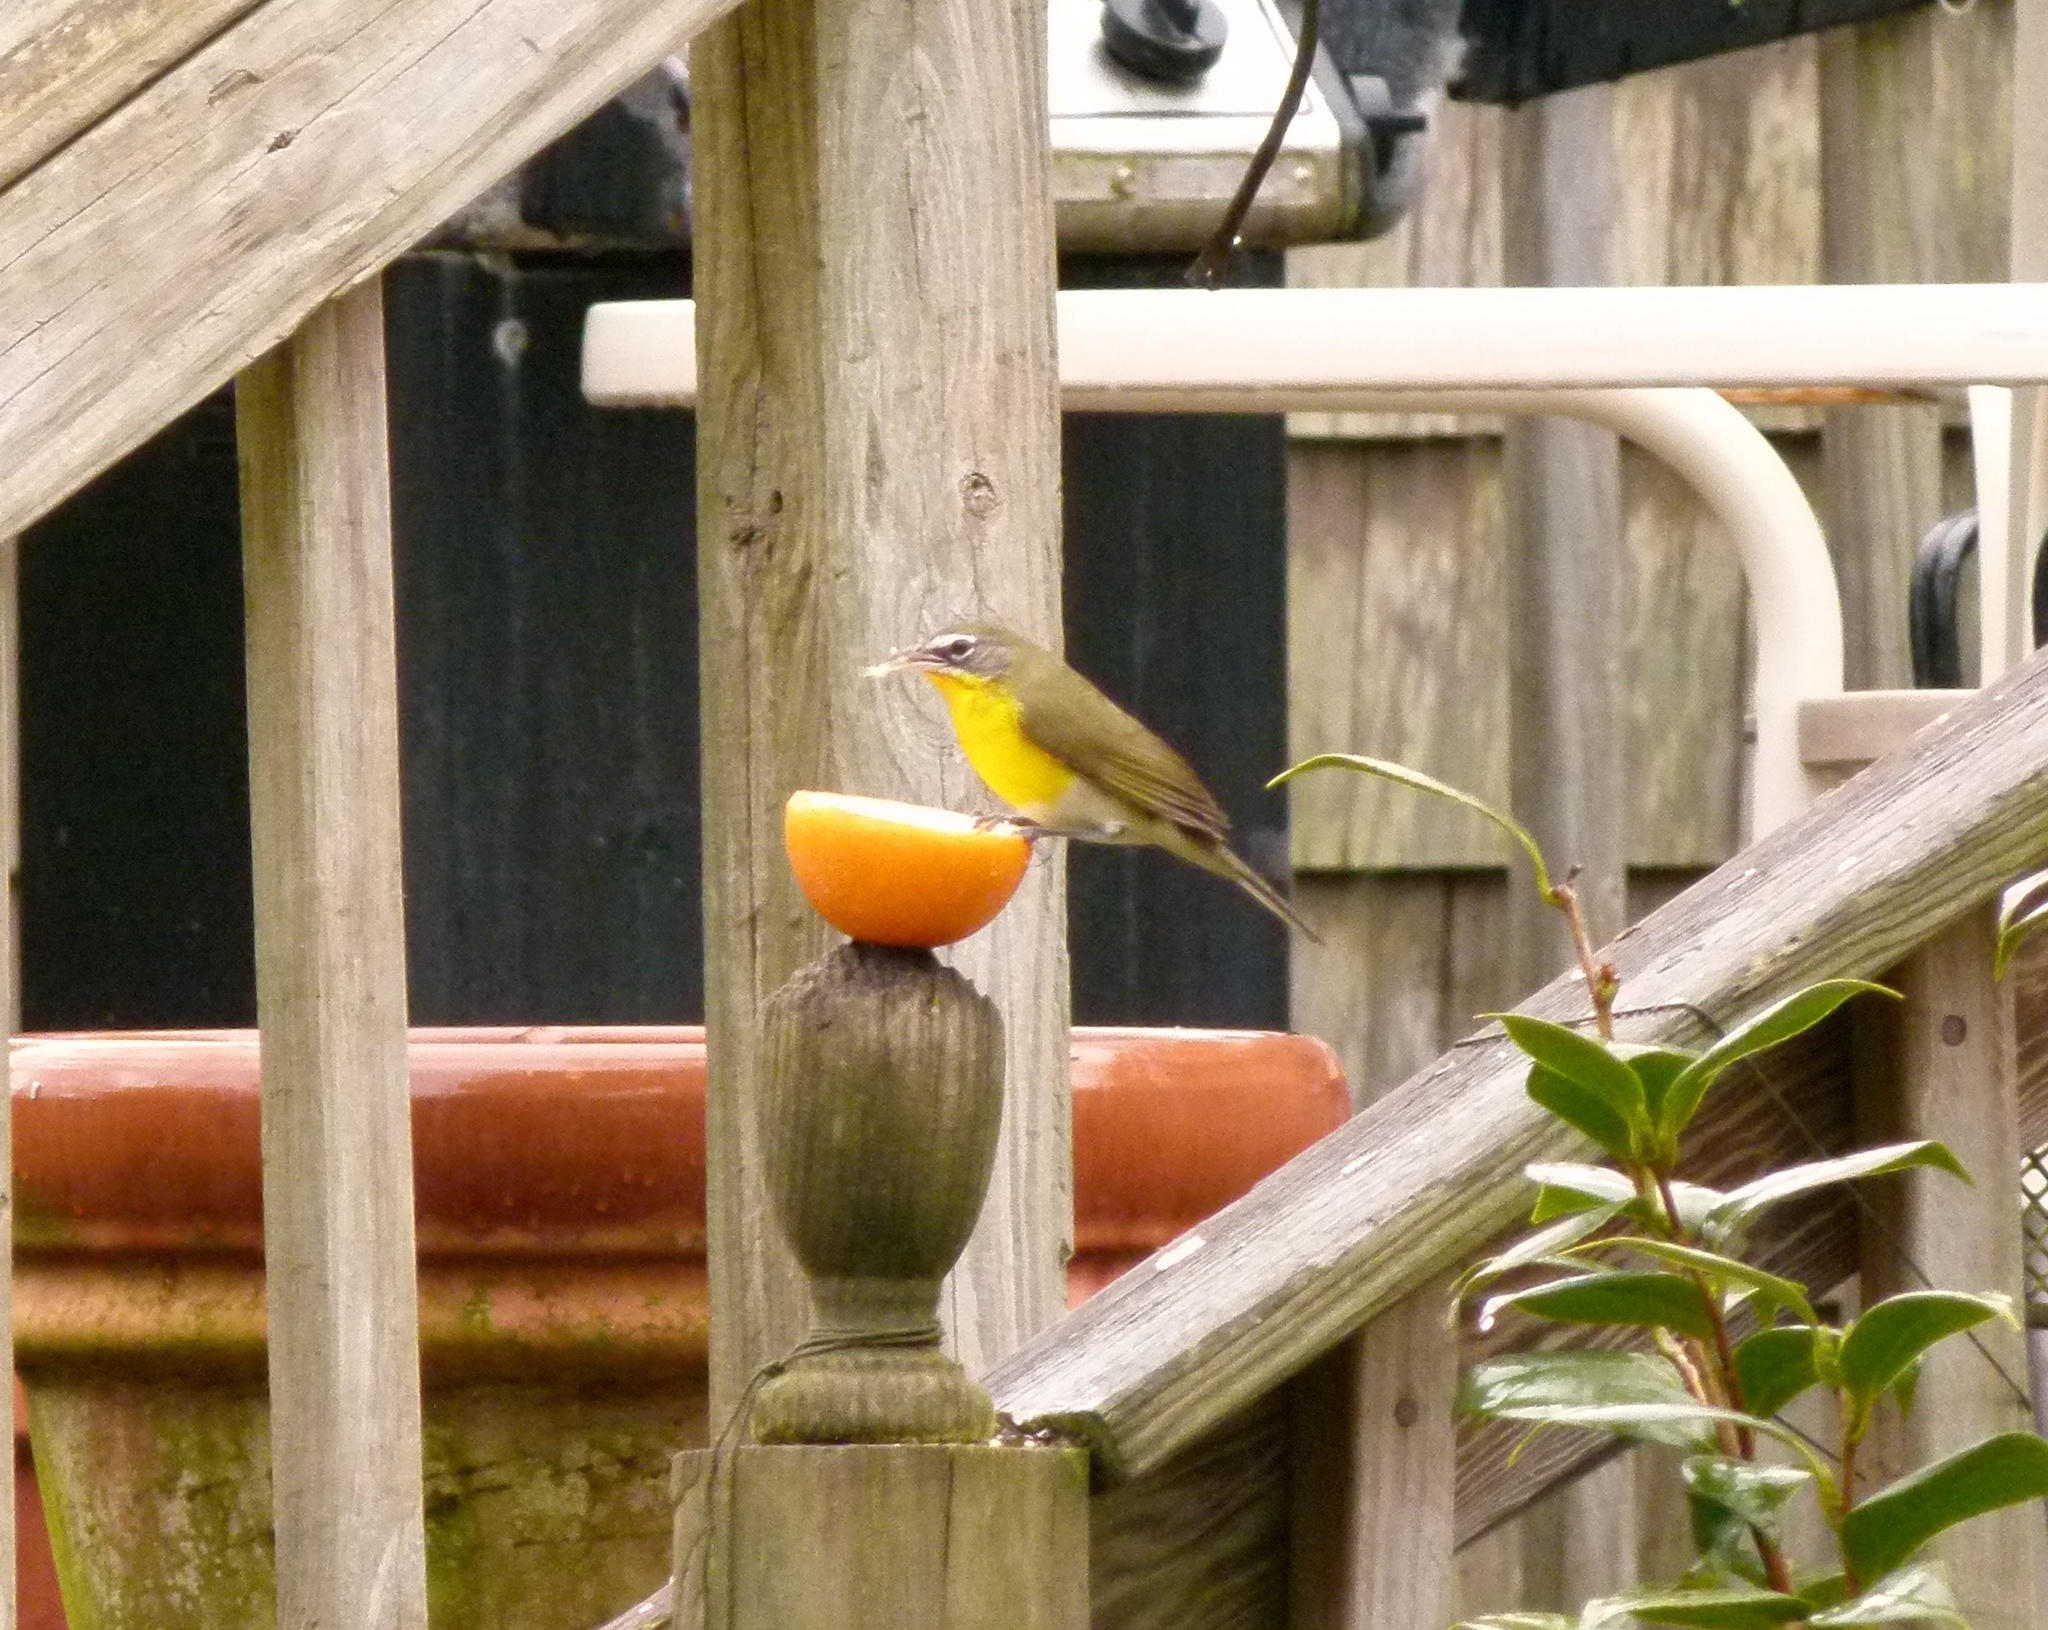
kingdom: Animalia
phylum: Chordata
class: Aves
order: Passeriformes
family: Parulidae
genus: Icteria
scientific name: Icteria virens
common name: Yellow-breasted chat
